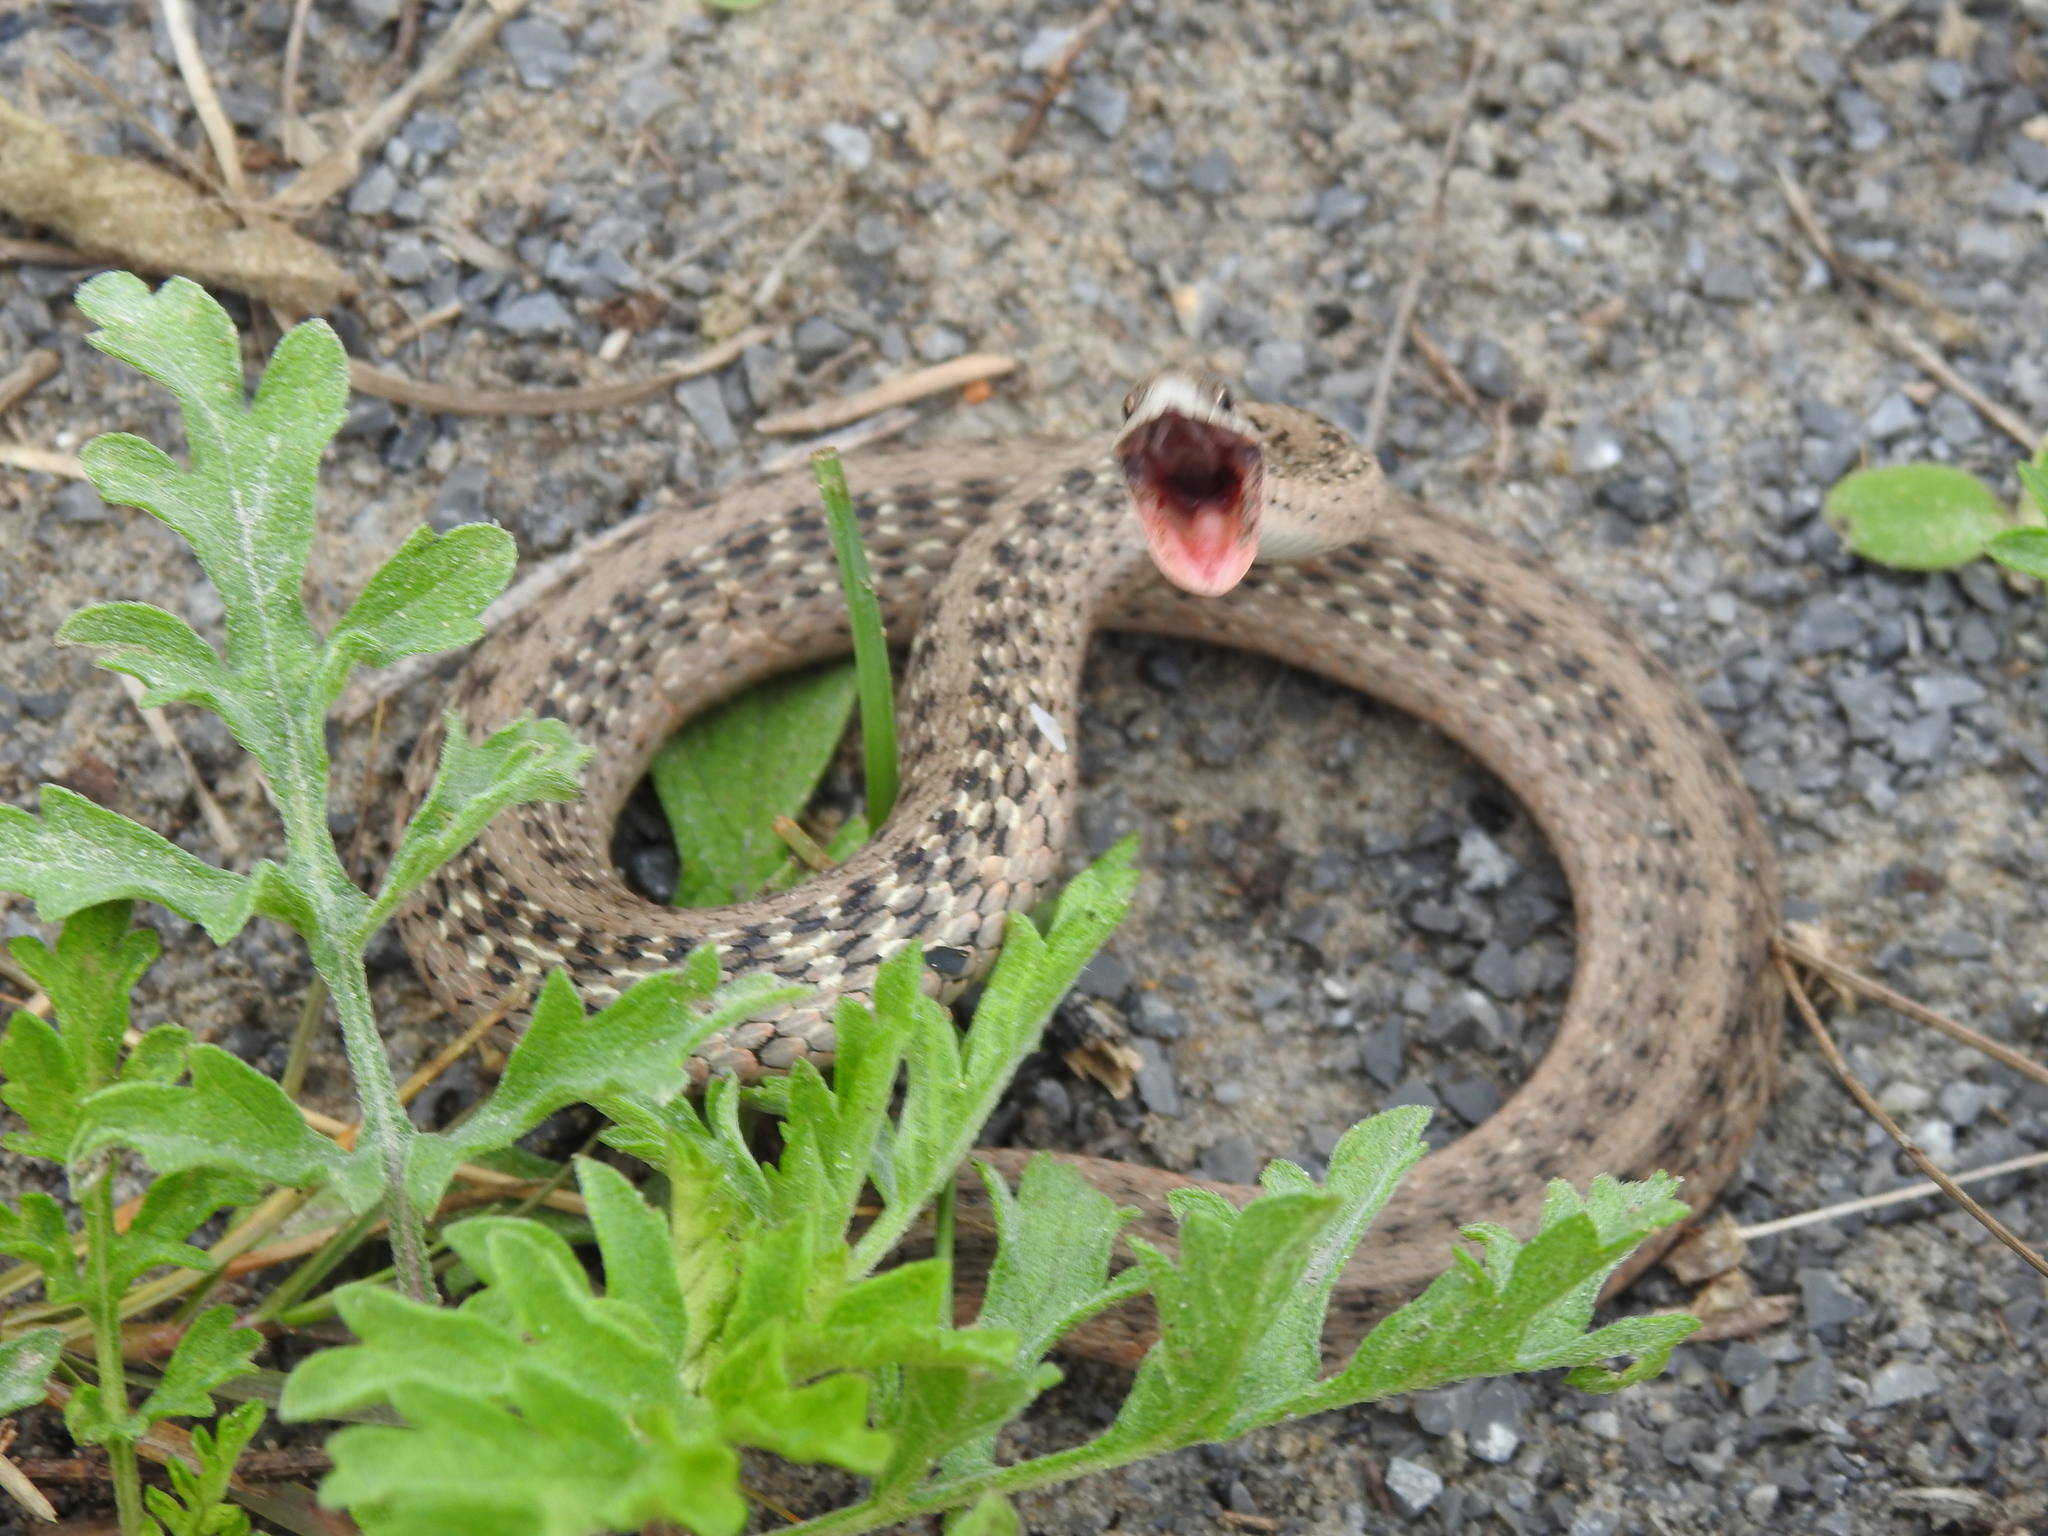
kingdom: Animalia
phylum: Chordata
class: Squamata
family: Colubridae
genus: Storeria
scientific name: Storeria dekayi
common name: (dekay’s) brown snake
